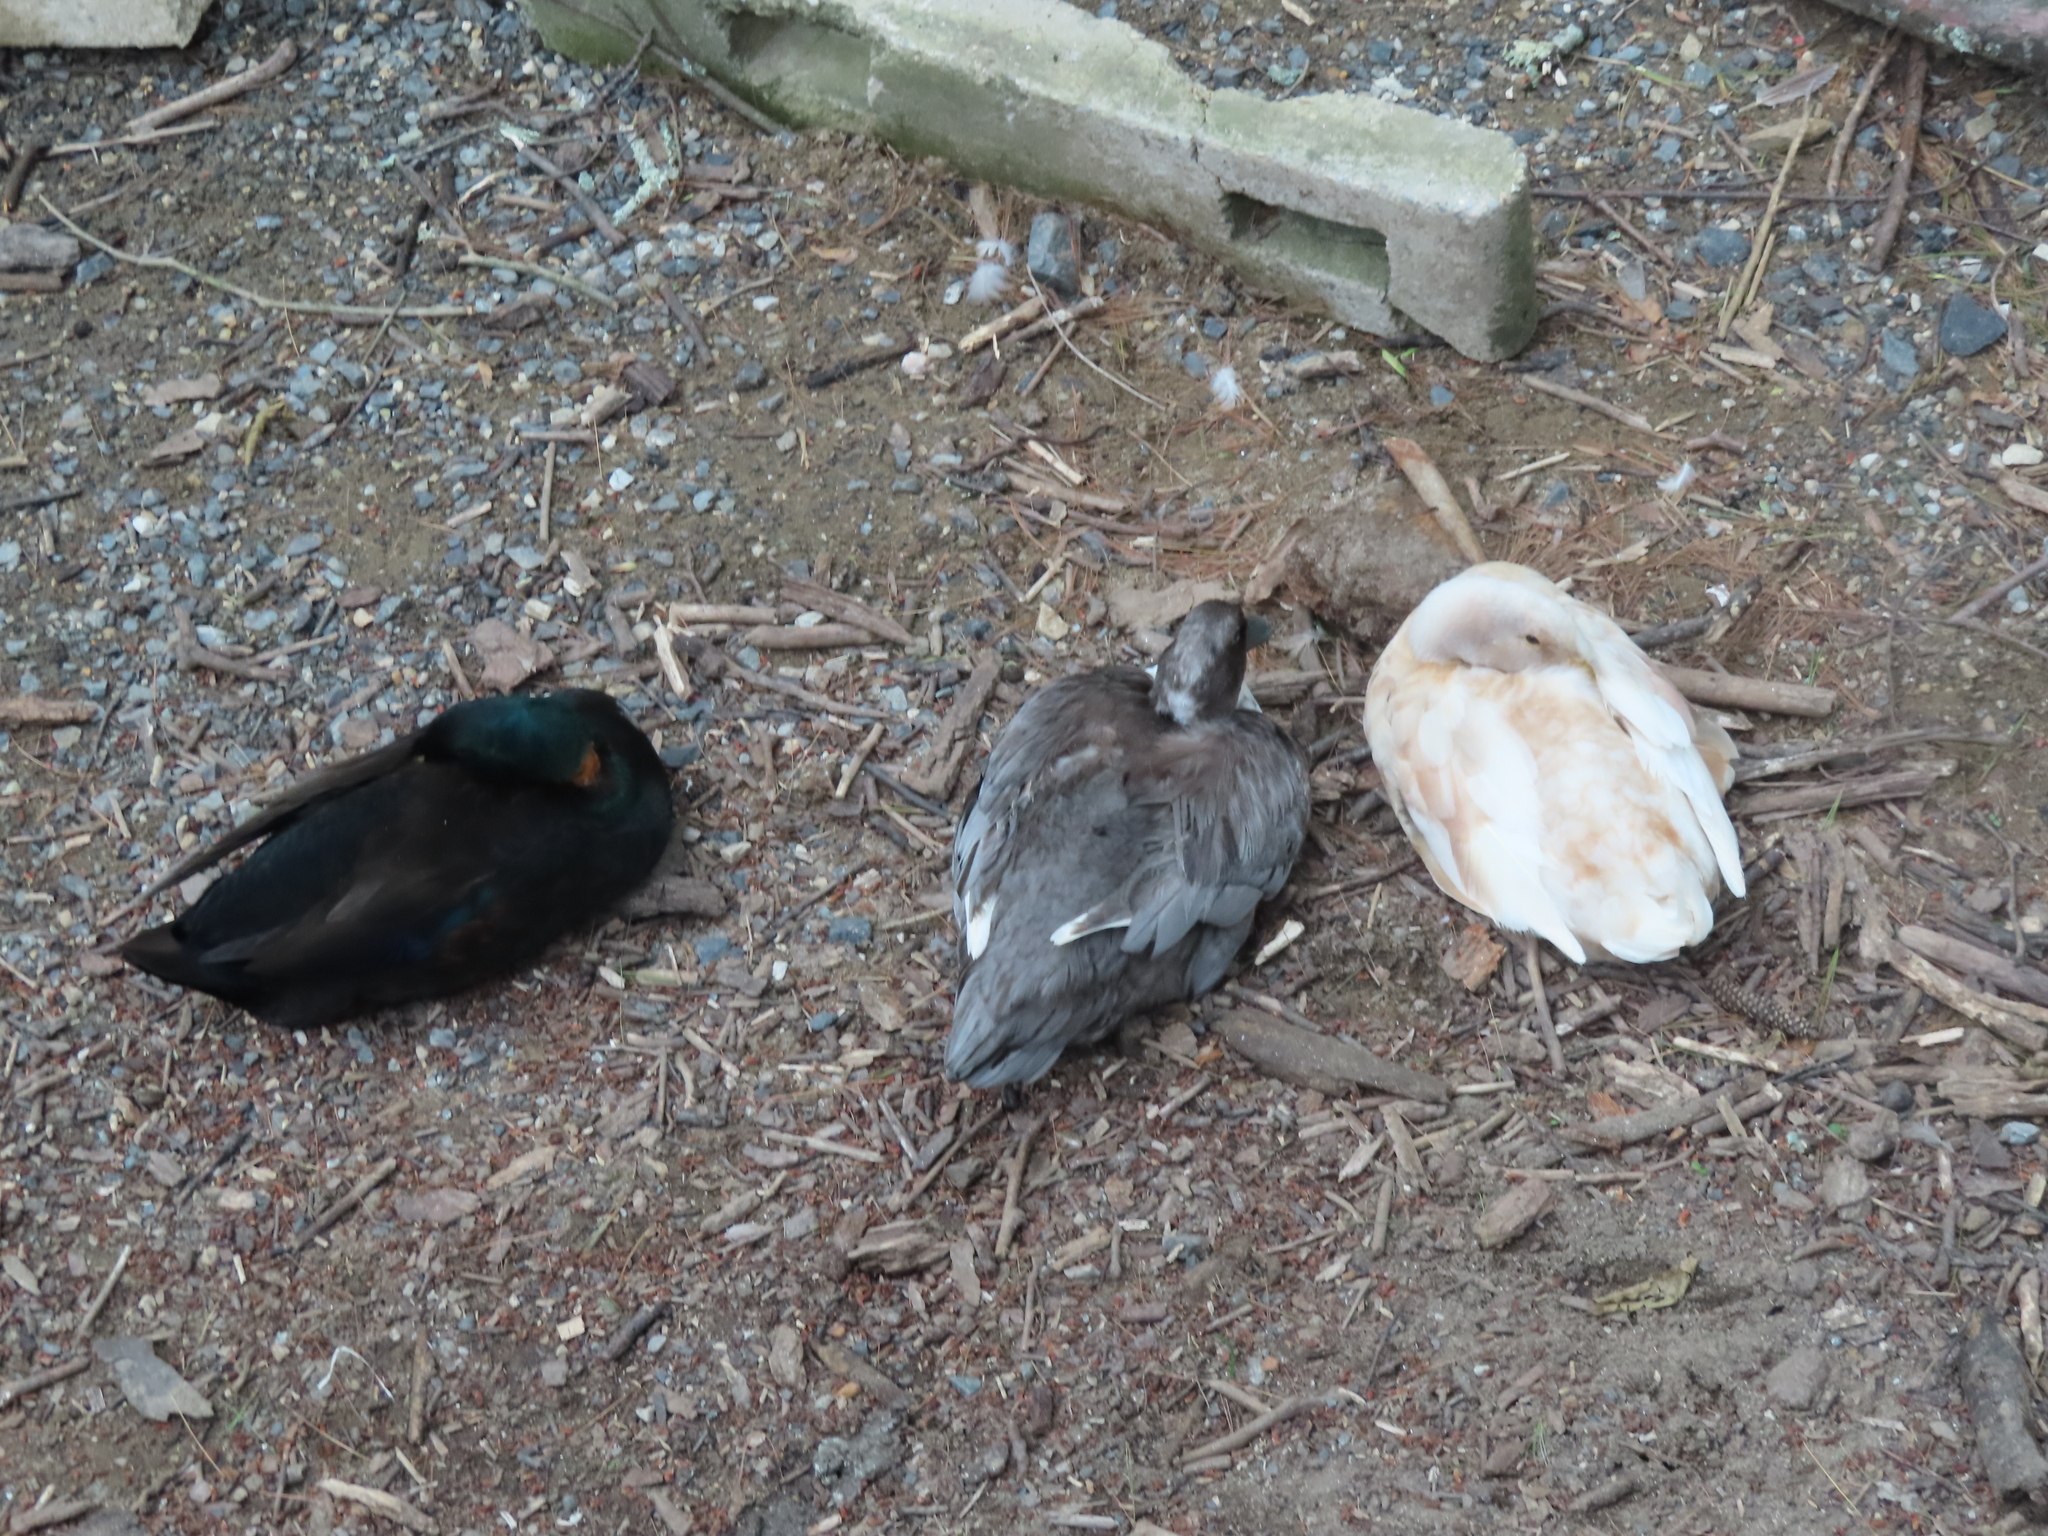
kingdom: Animalia
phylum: Chordata
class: Aves
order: Anseriformes
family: Anatidae
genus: Anas
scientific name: Anas platyrhynchos
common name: Mallard
